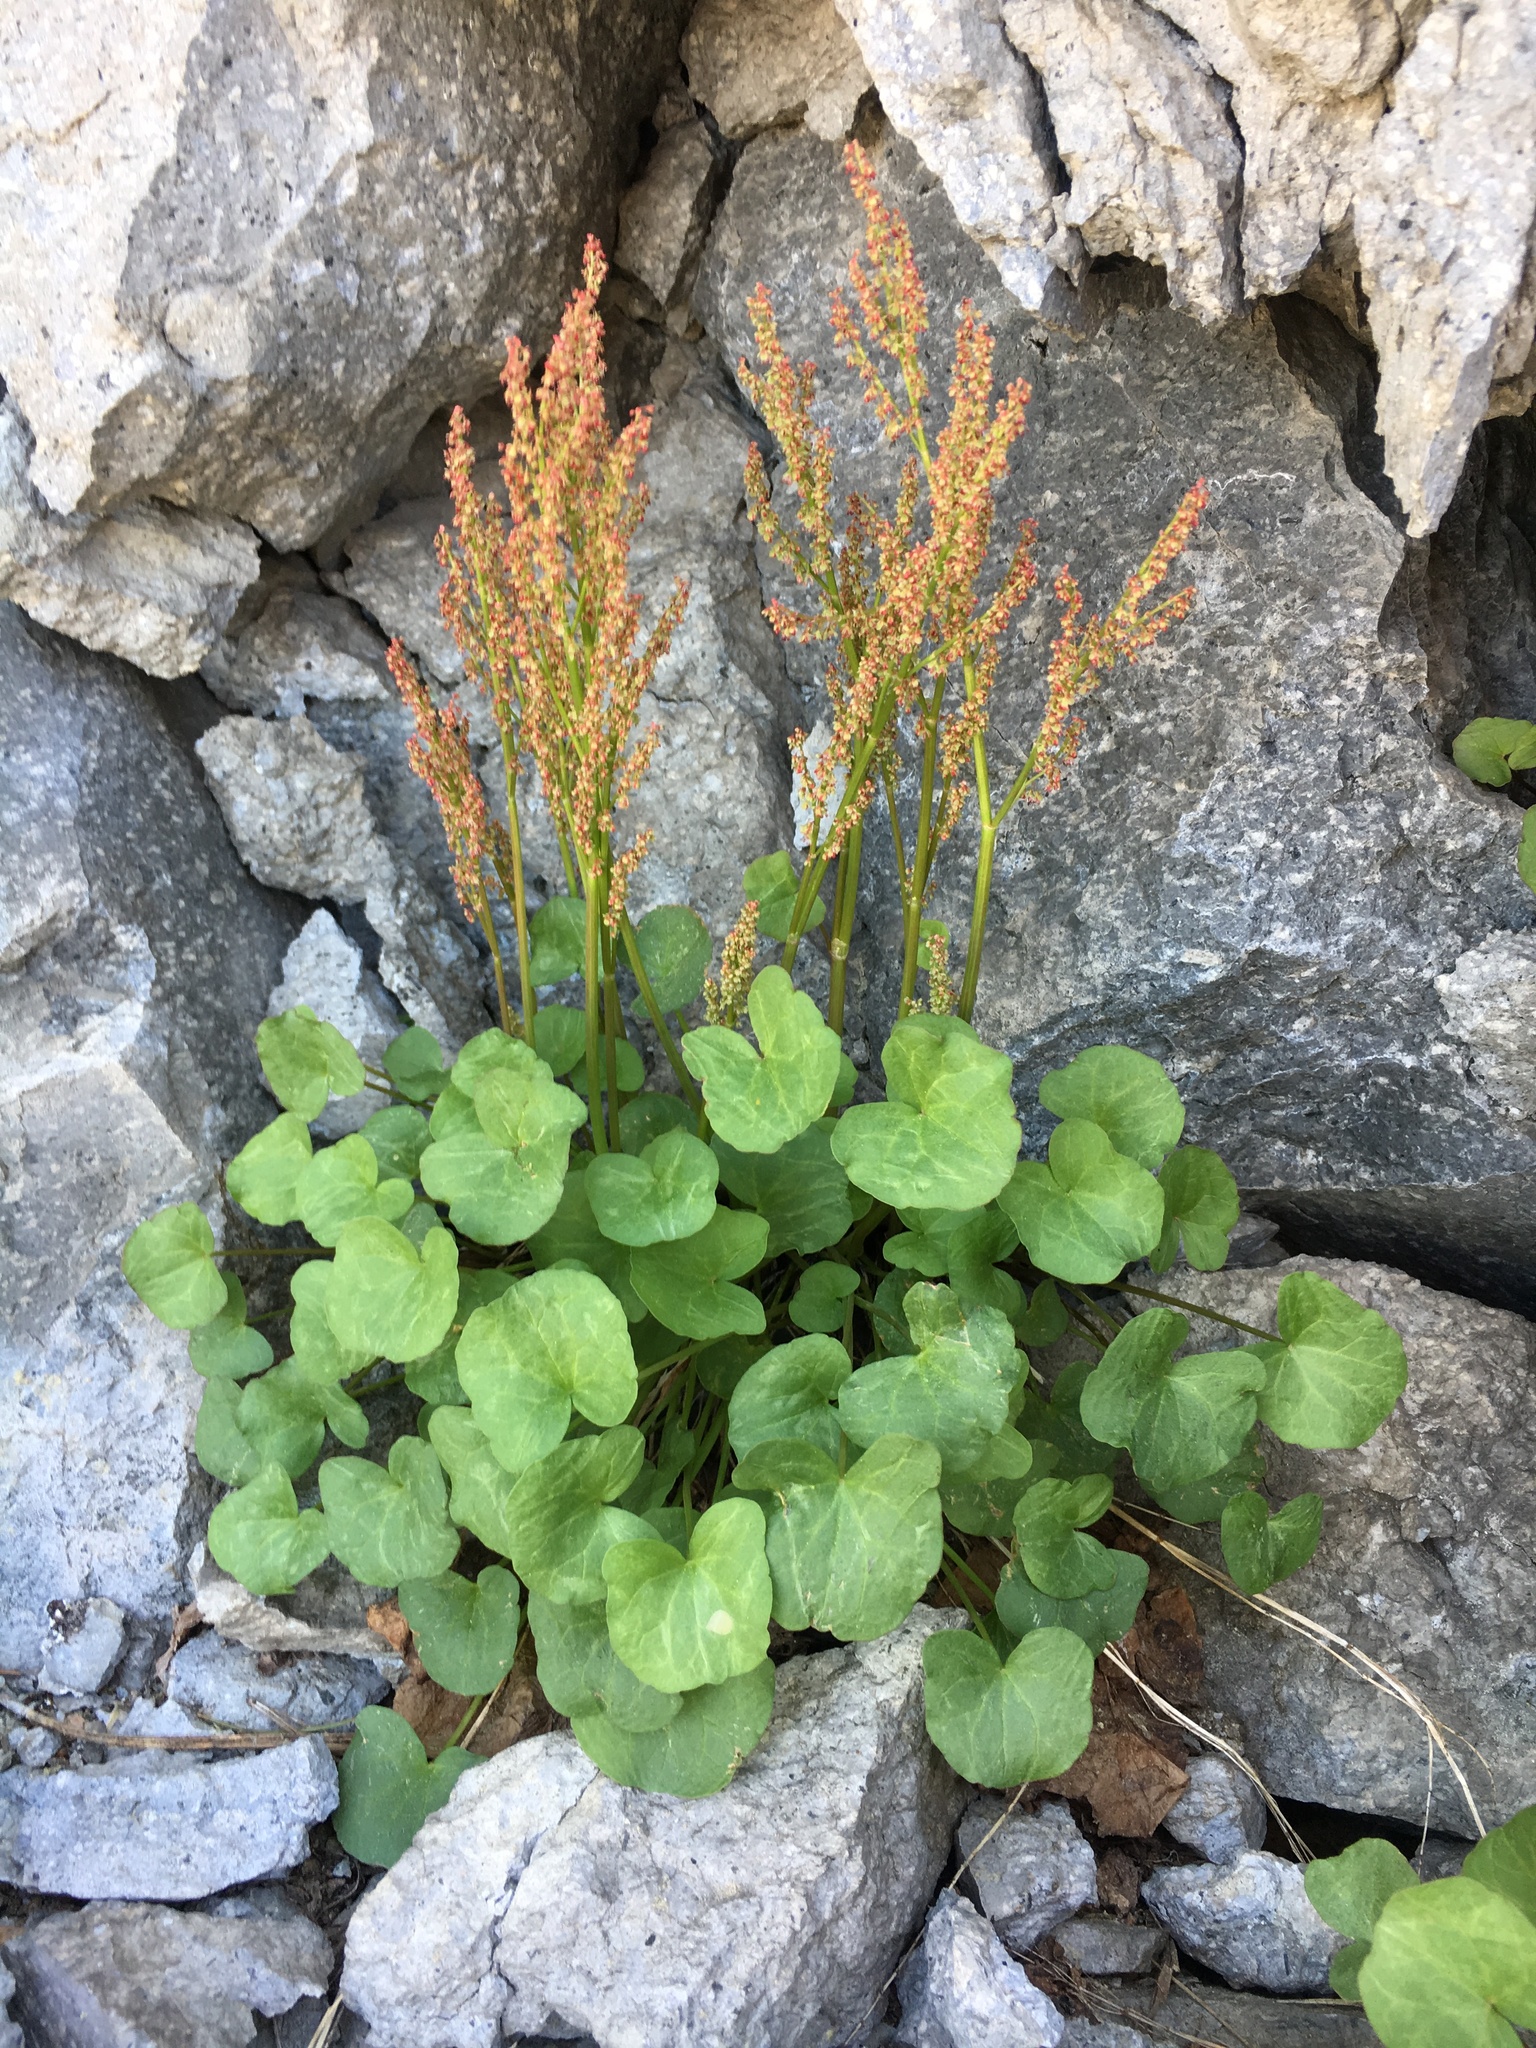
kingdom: Plantae
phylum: Tracheophyta
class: Magnoliopsida
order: Caryophyllales
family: Polygonaceae
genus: Oxyria
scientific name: Oxyria digyna
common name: Alpine mountain-sorrel
